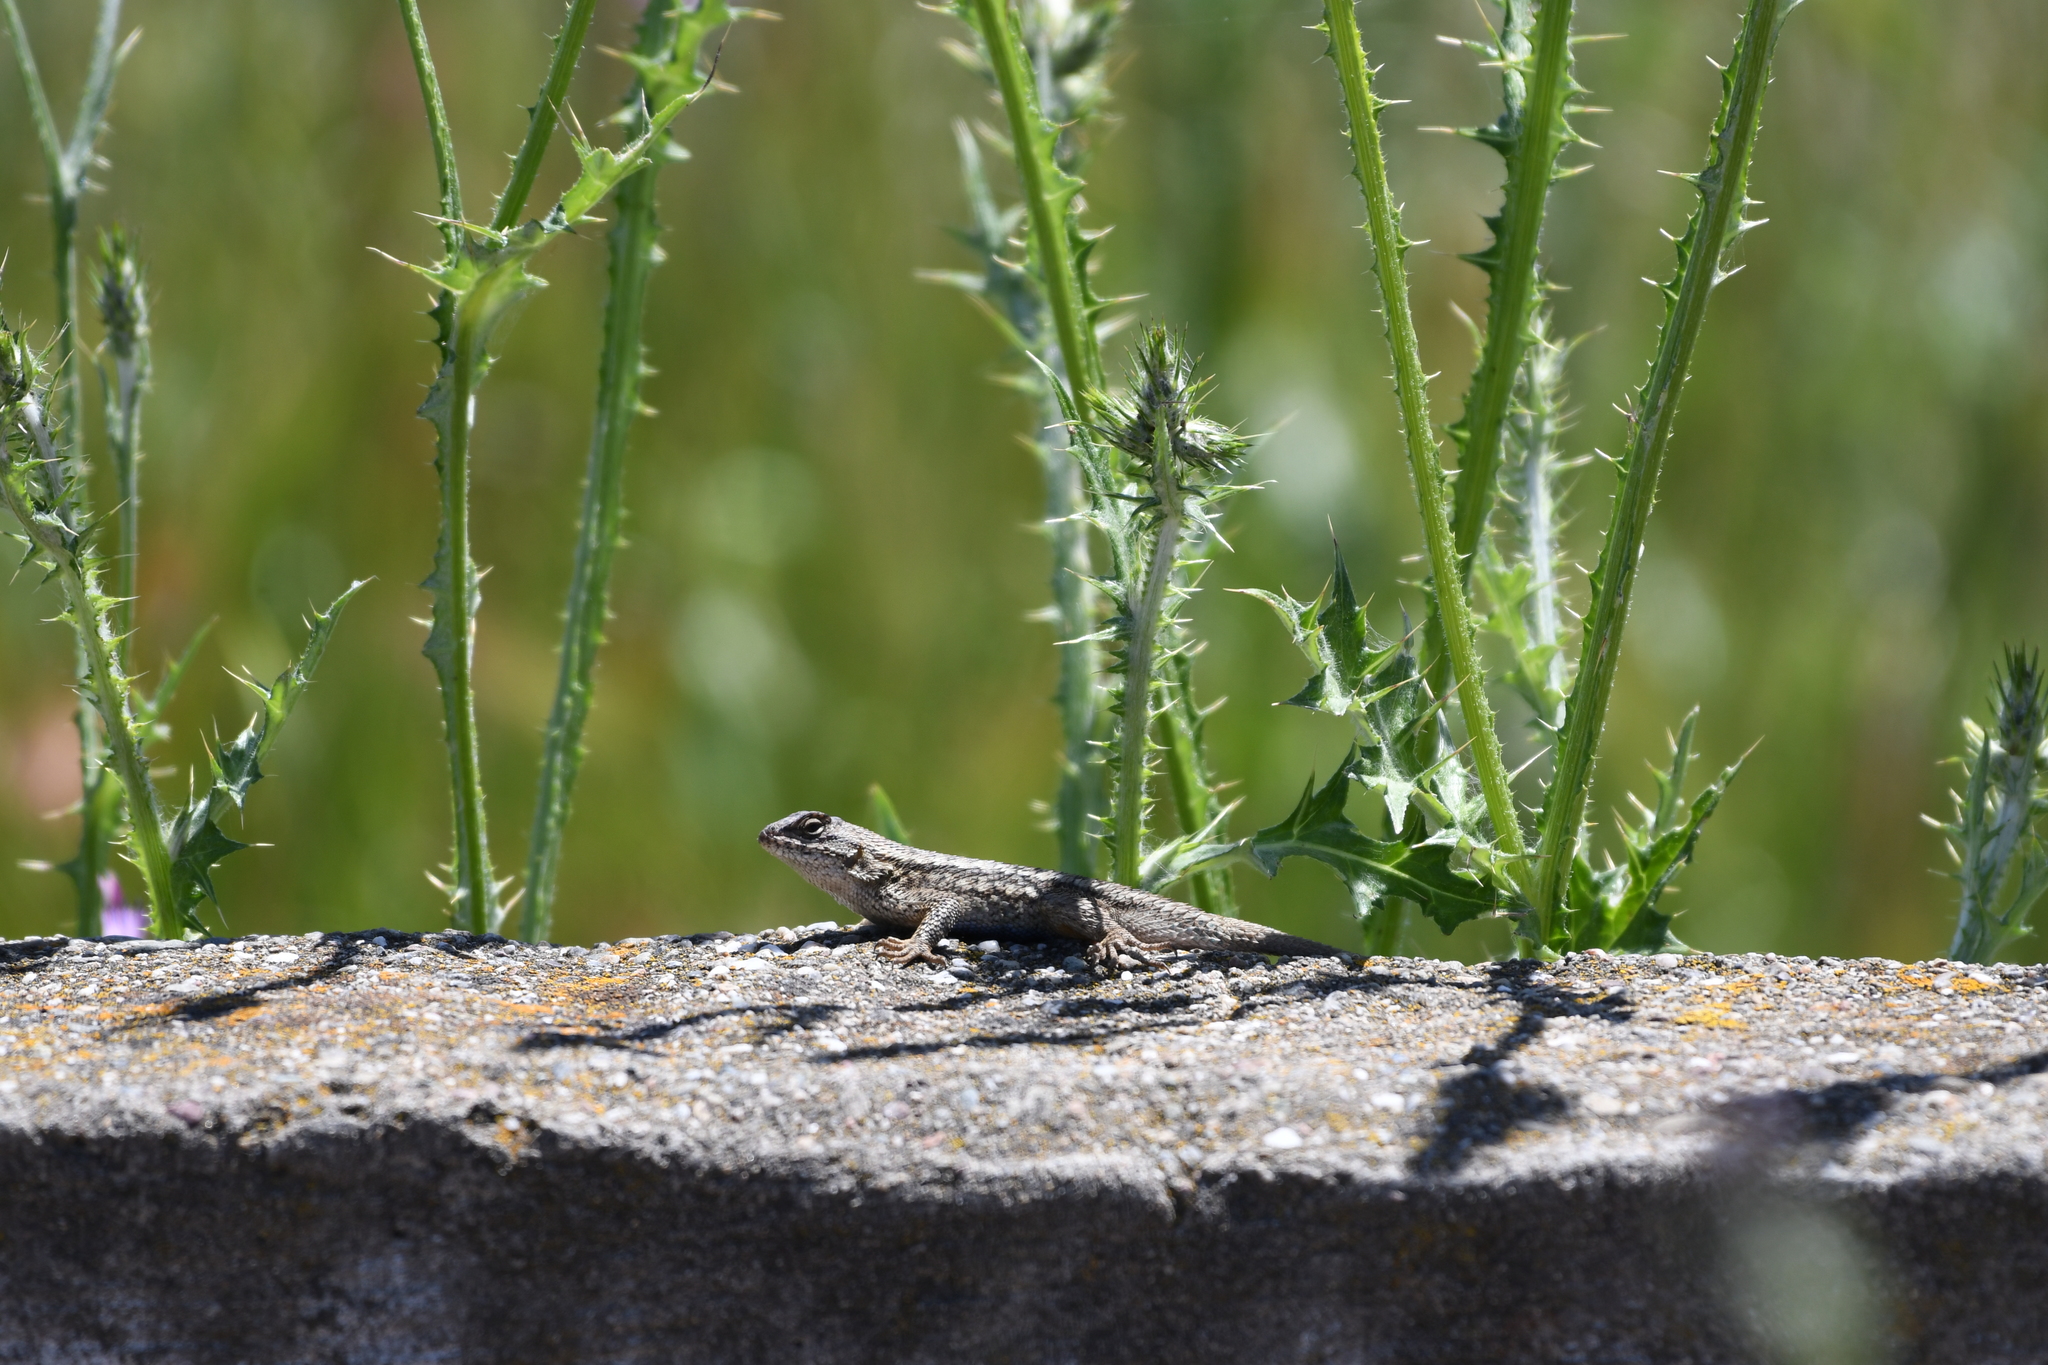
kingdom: Animalia
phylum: Chordata
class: Squamata
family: Phrynosomatidae
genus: Sceloporus
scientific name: Sceloporus occidentalis
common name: Western fence lizard
